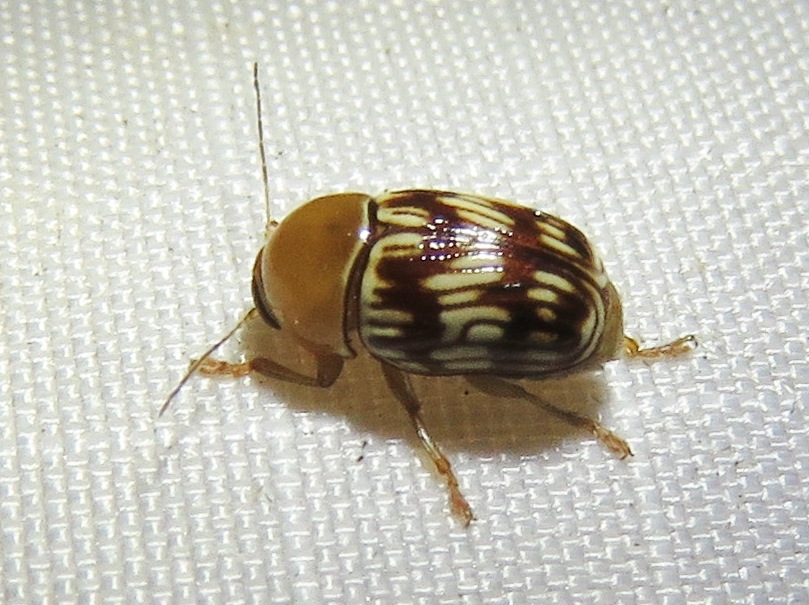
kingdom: Animalia
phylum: Arthropoda
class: Insecta
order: Coleoptera
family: Chrysomelidae
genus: Cryptocephalus
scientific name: Cryptocephalus fulguratus
